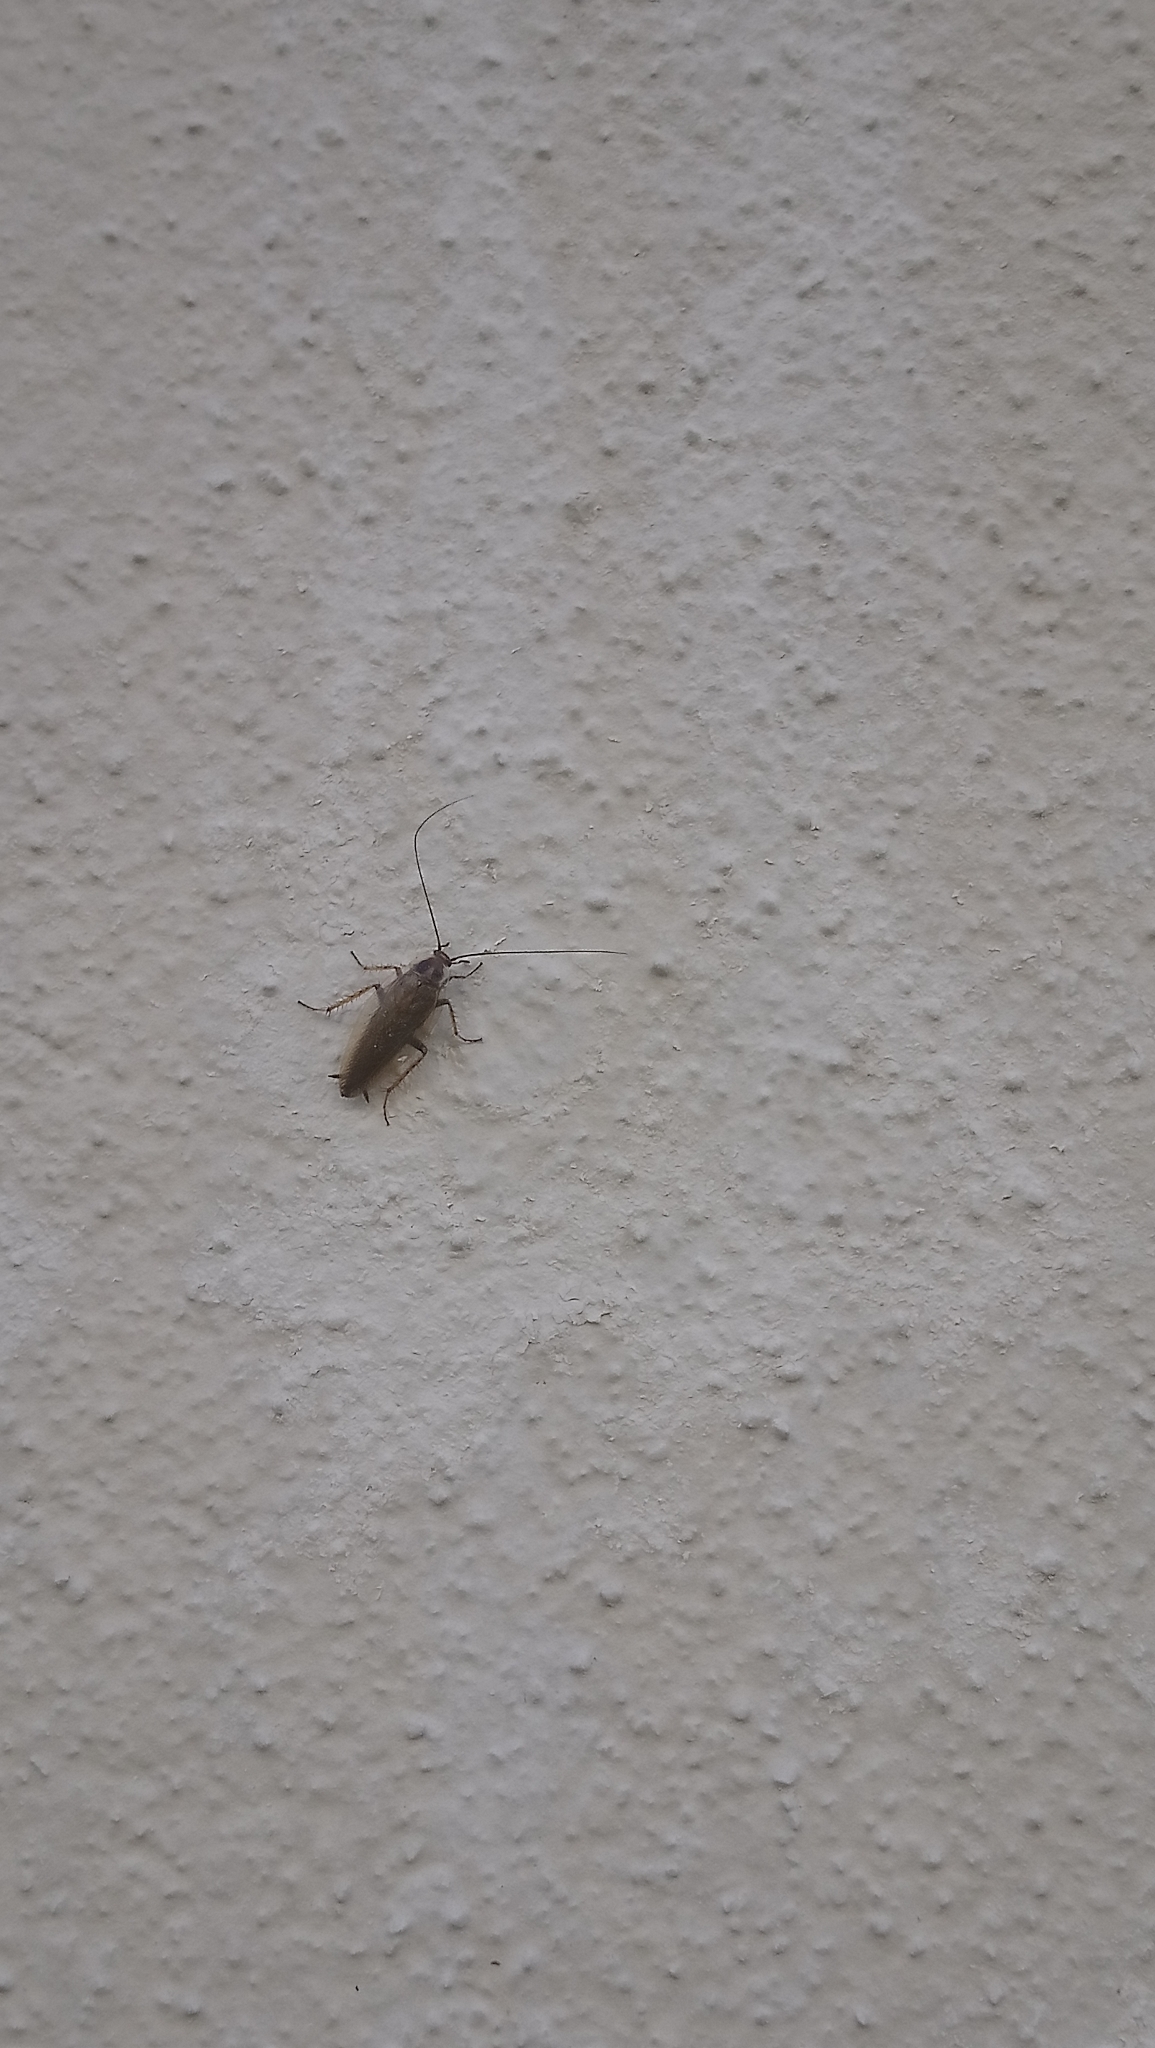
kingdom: Animalia
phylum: Arthropoda
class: Insecta
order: Blattodea
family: Ectobiidae
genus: Ectobius
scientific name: Ectobius vittiventris
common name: Garden cockroach
